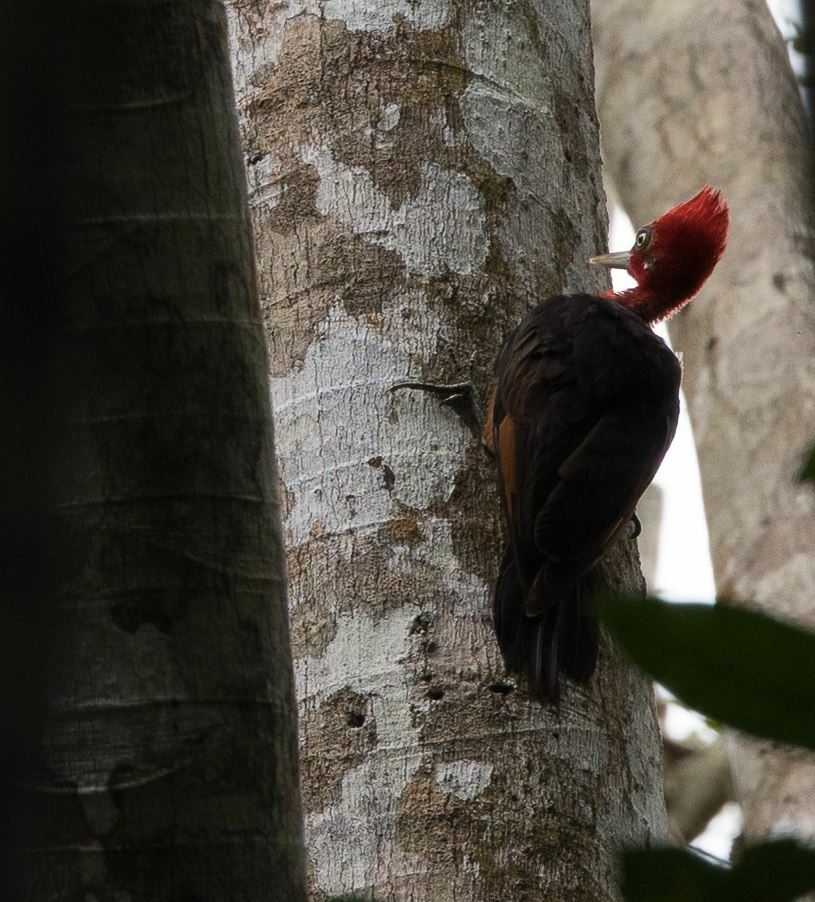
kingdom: Animalia
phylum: Chordata
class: Aves
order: Piciformes
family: Picidae
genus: Campephilus
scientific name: Campephilus rubricollis
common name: Red-necked woodpecker
